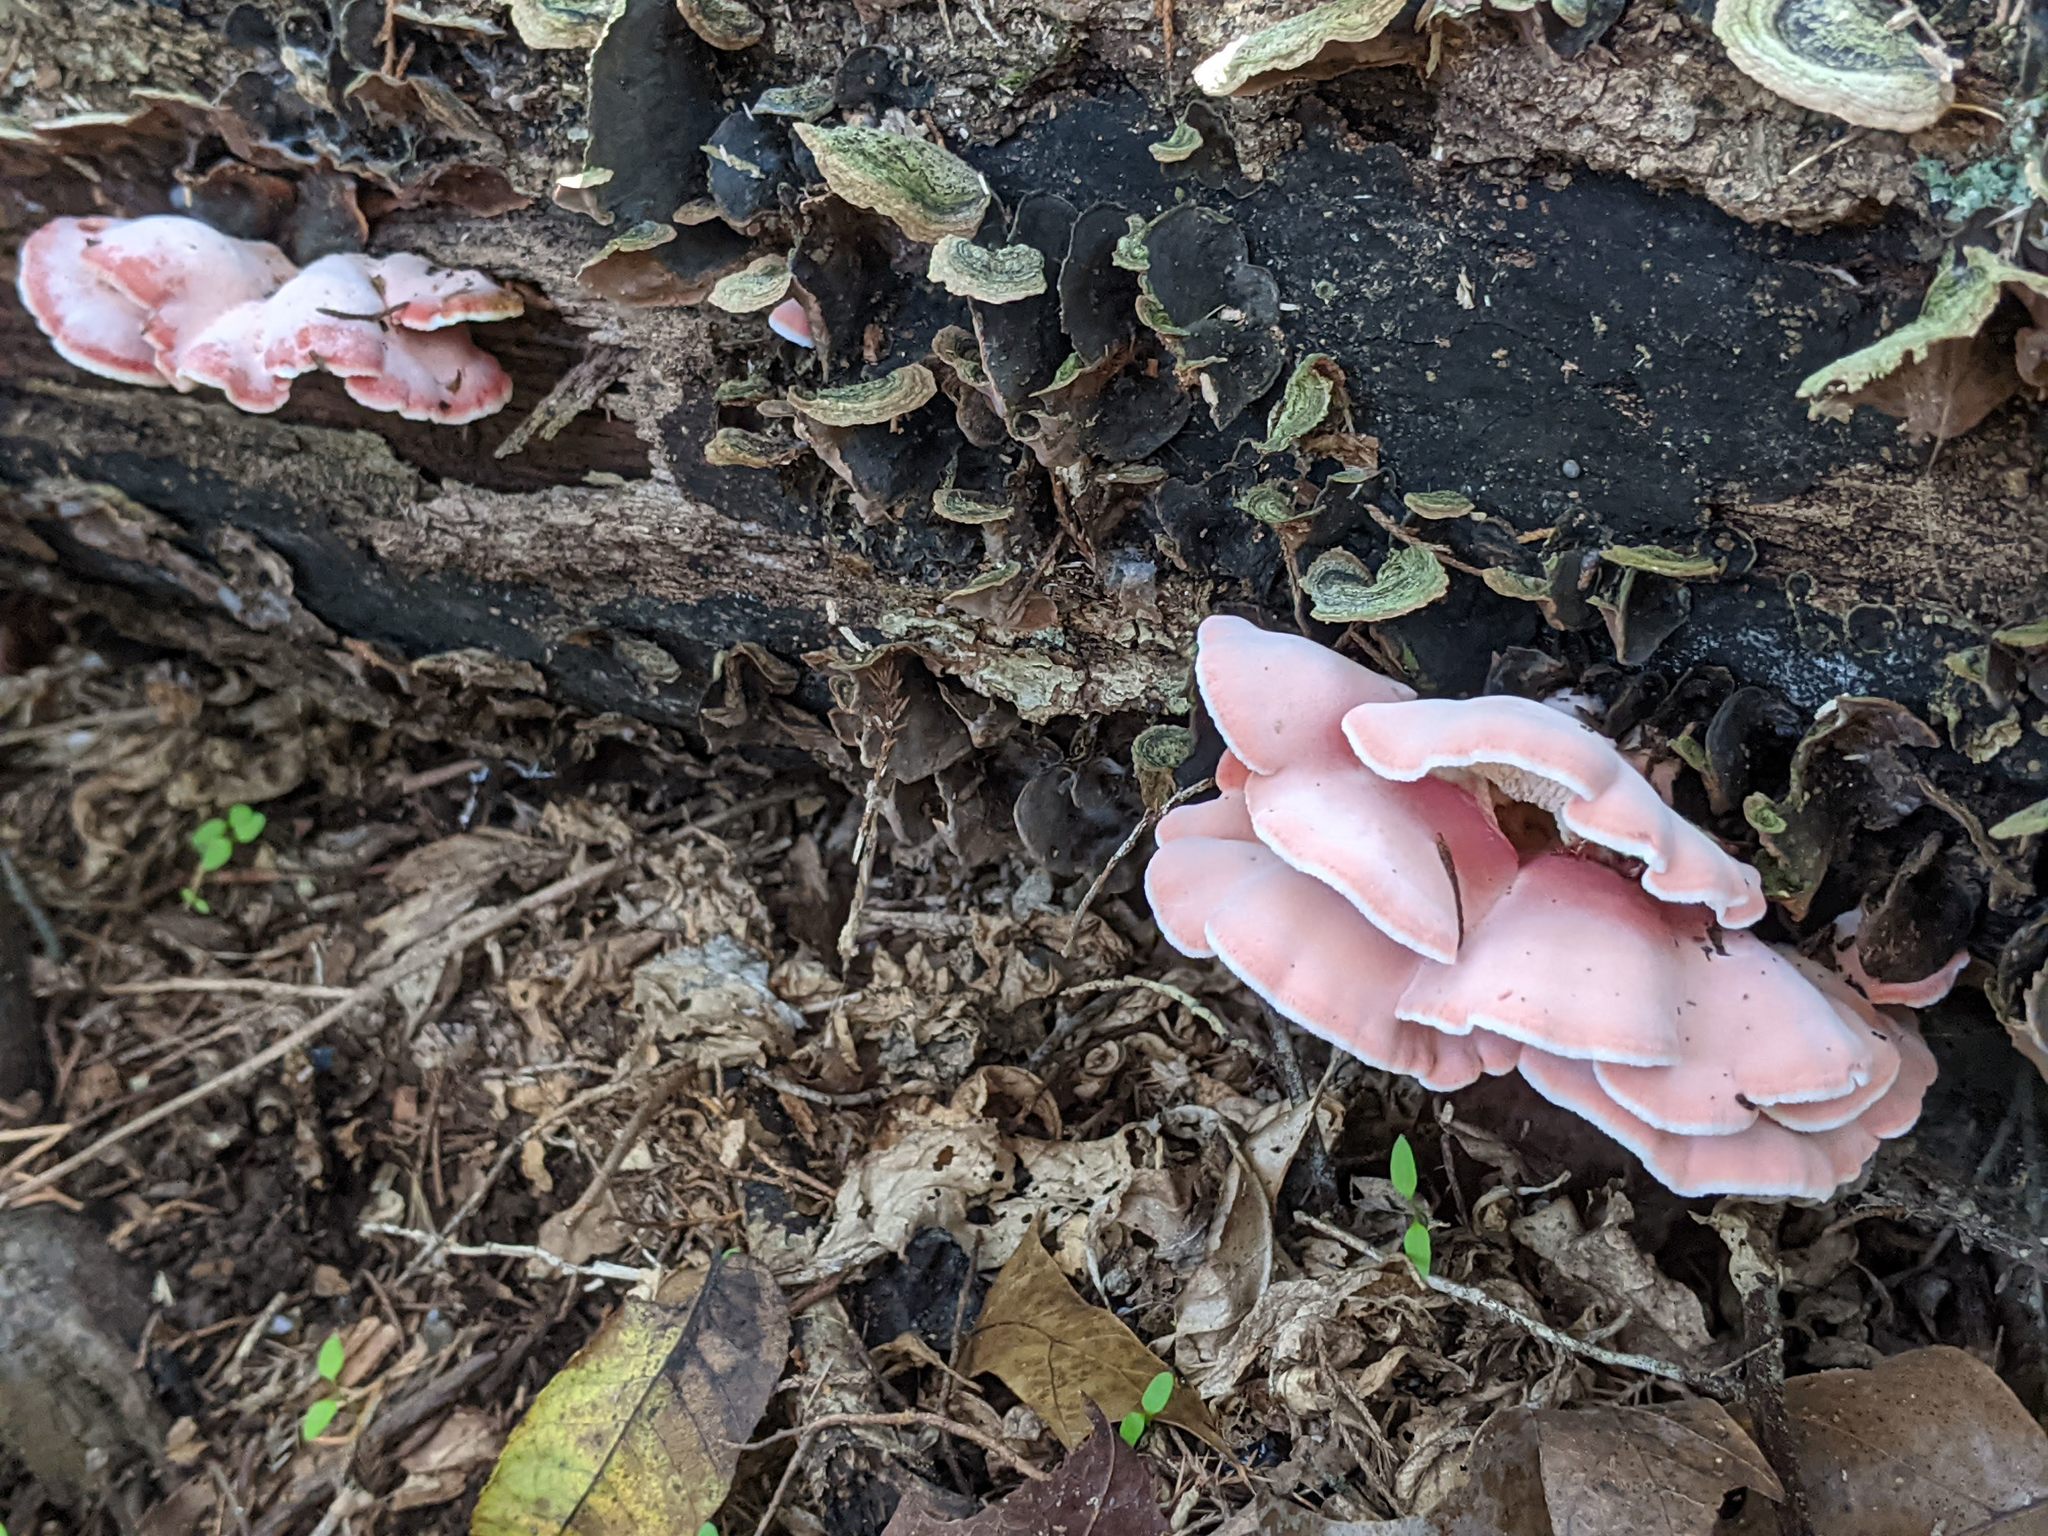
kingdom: Fungi
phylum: Basidiomycota
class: Agaricomycetes
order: Polyporales
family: Irpicaceae
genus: Byssomerulius
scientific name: Byssomerulius incarnatus
